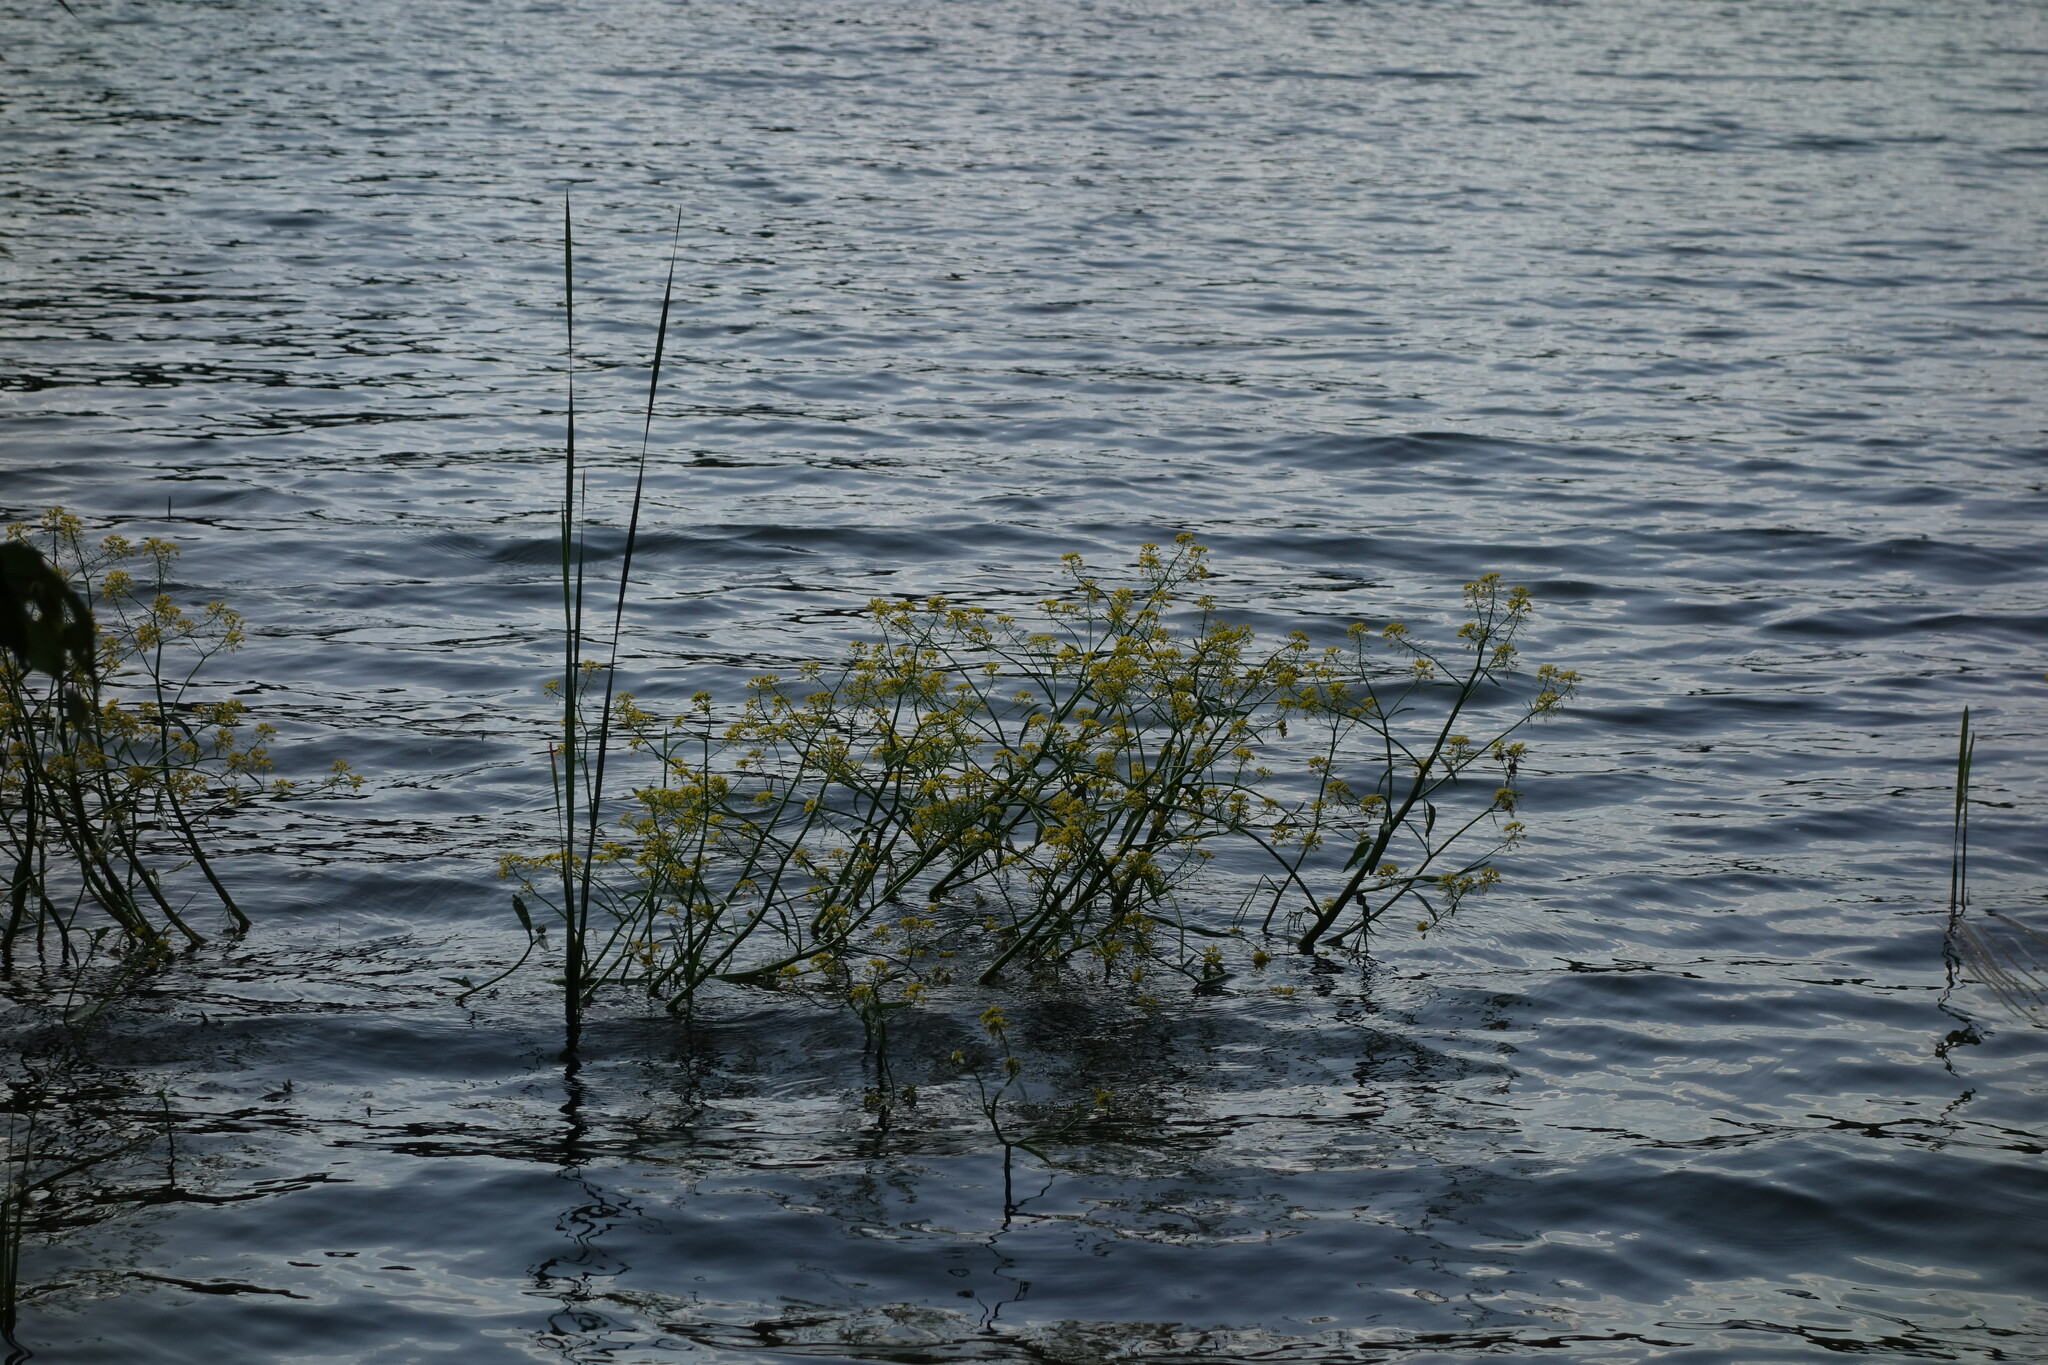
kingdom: Plantae
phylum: Tracheophyta
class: Magnoliopsida
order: Brassicales
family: Brassicaceae
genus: Rorippa
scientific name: Rorippa amphibia
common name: Great yellow-cress
